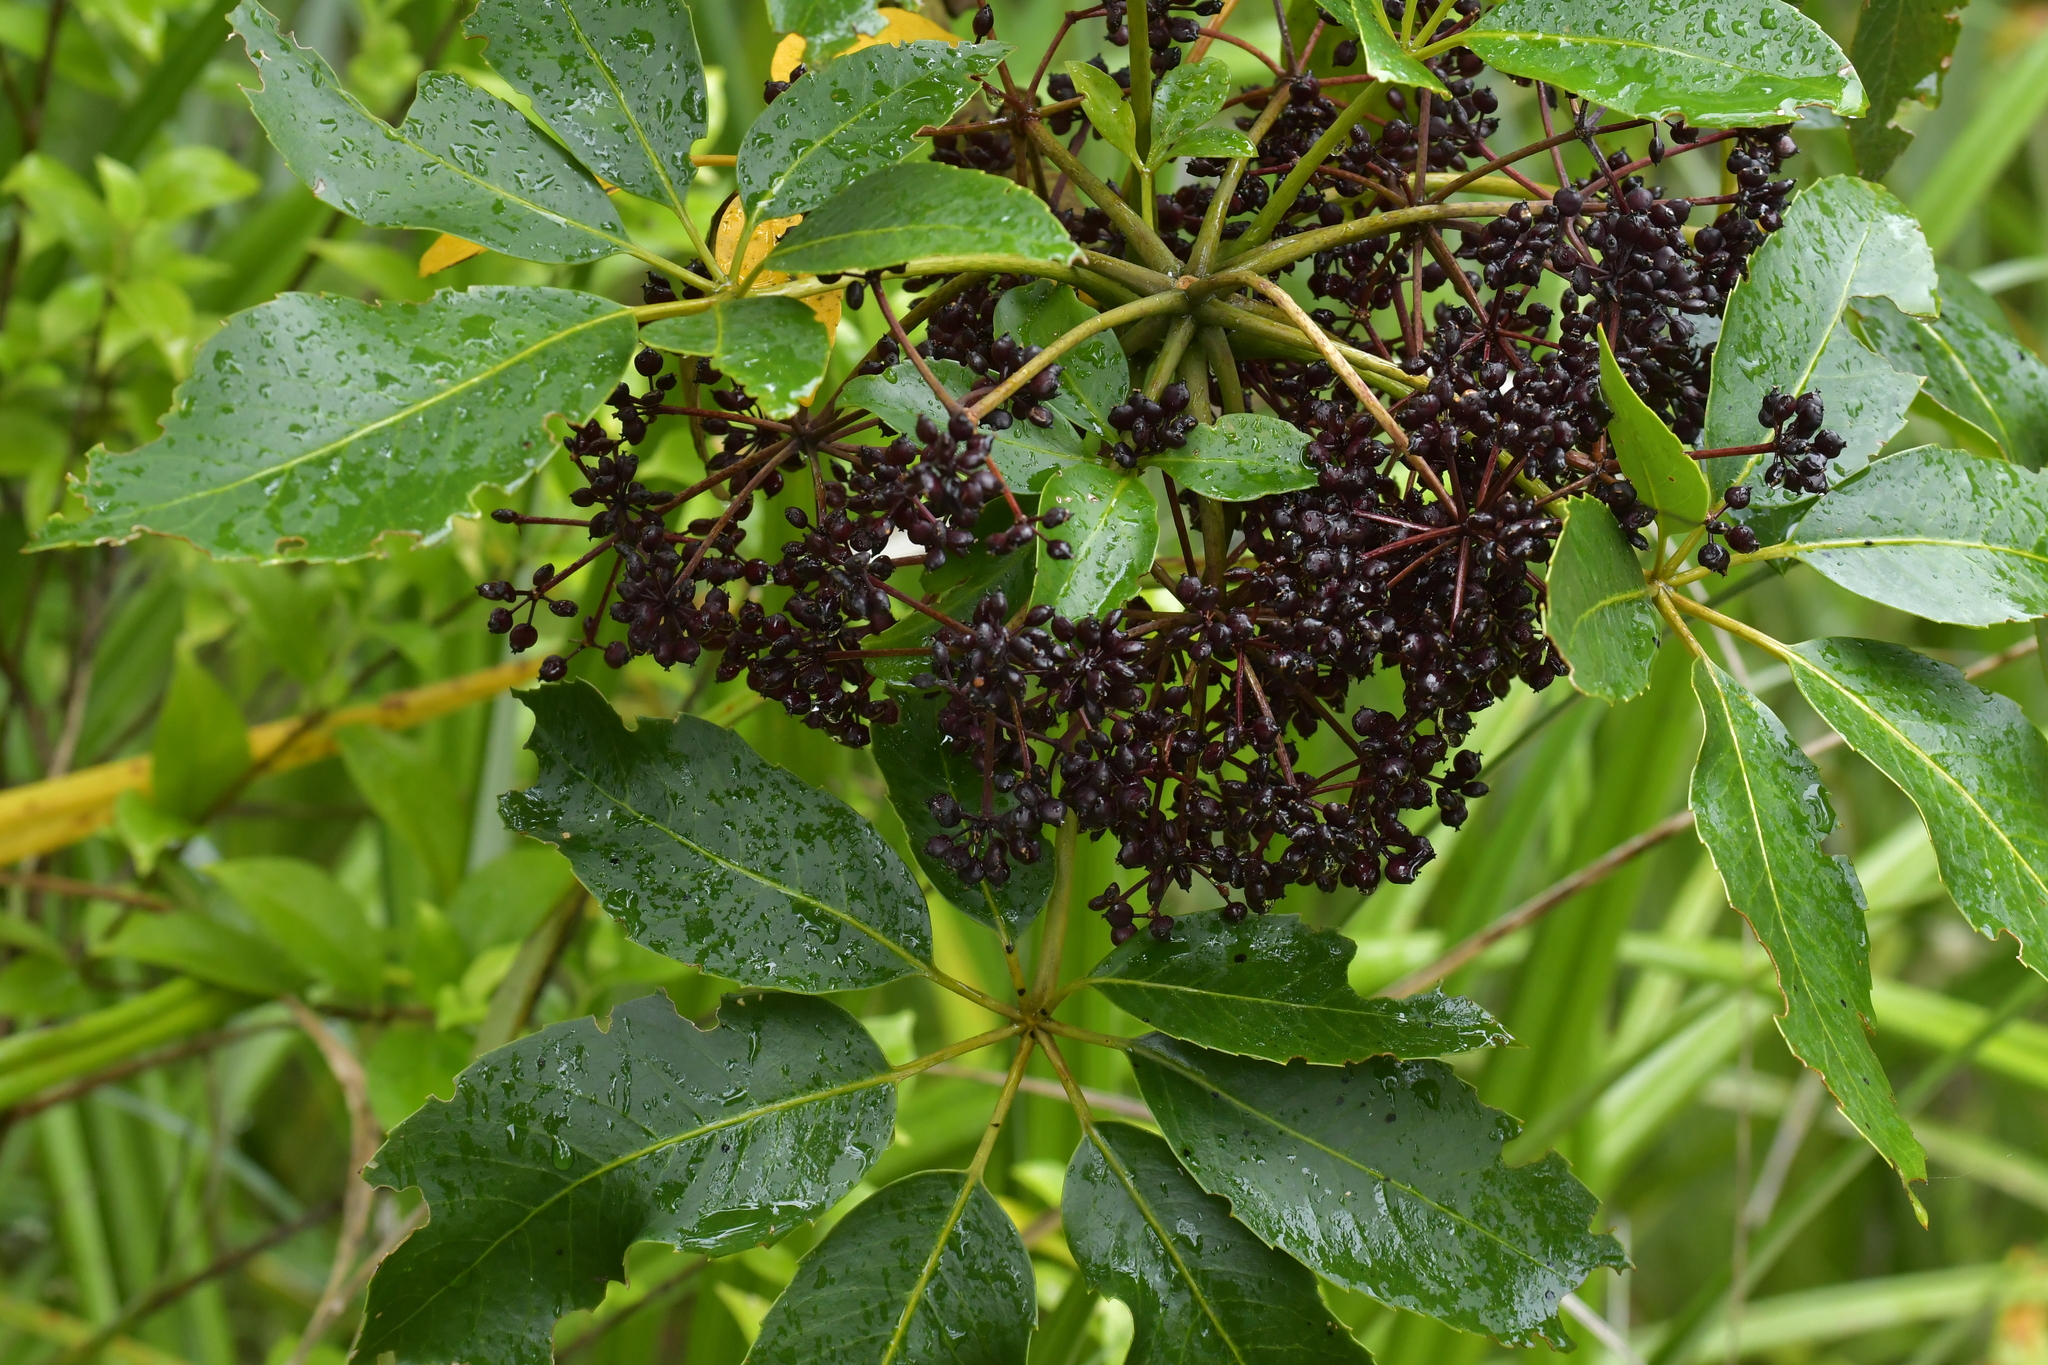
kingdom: Plantae
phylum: Tracheophyta
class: Magnoliopsida
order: Apiales
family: Araliaceae
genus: Neopanax
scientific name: Neopanax arboreus
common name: Five-fingers
